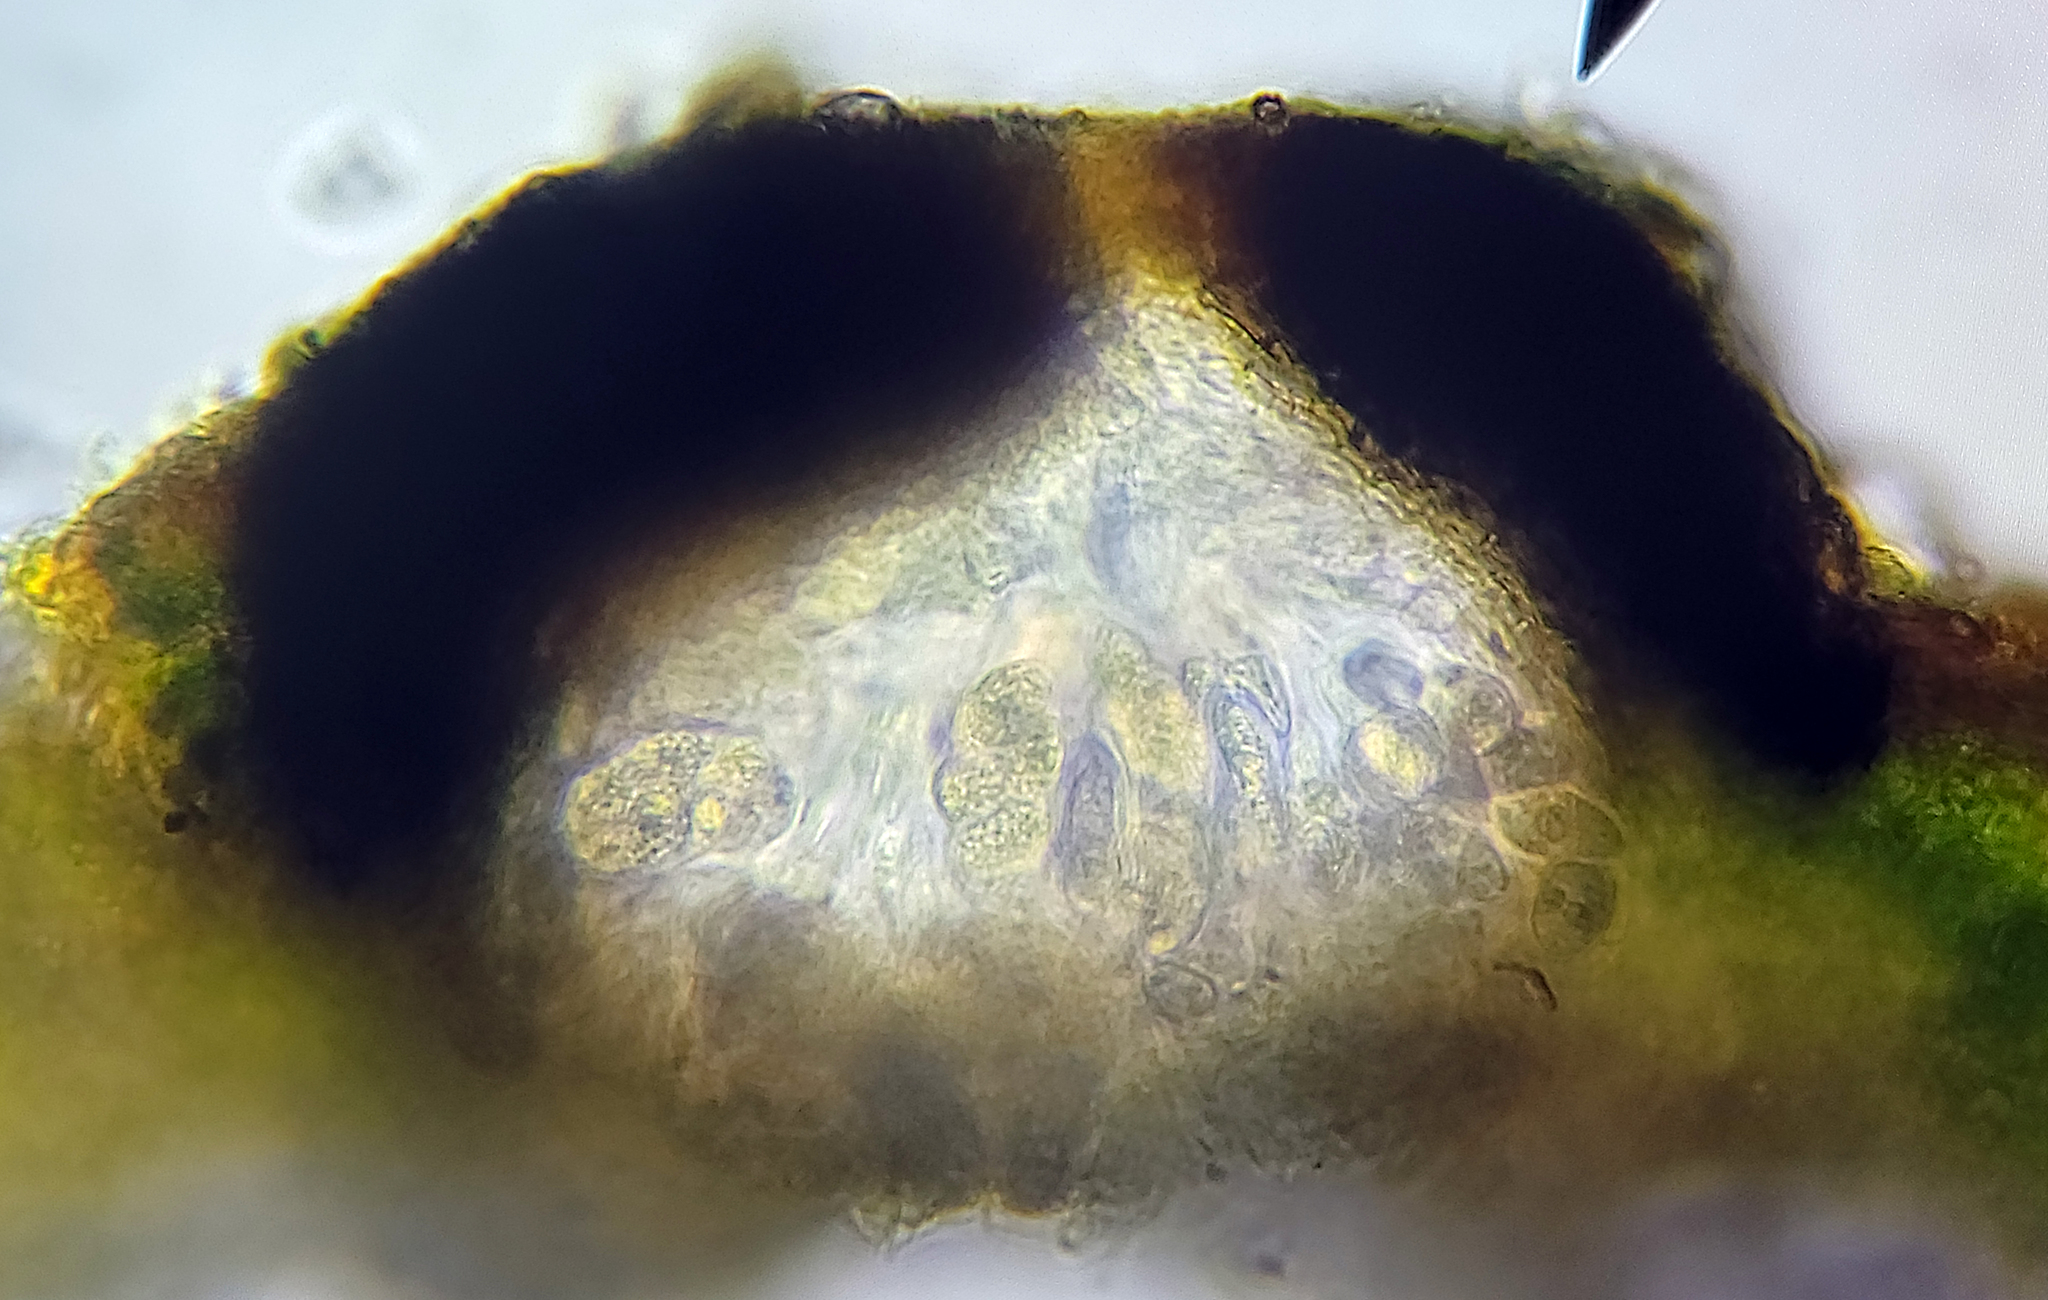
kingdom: Fungi
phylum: Ascomycota
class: Eurotiomycetes
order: Verrucariales
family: Verrucariaceae
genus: Verrucaria
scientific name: Verrucaria muralis
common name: Wall speck lichen
